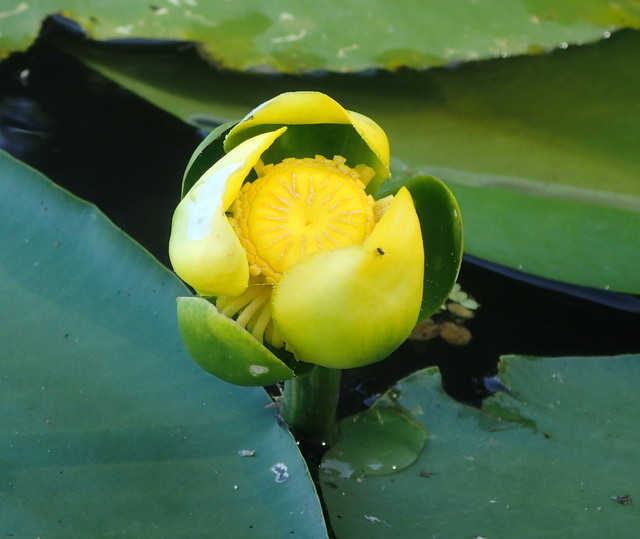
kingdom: Plantae
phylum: Tracheophyta
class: Magnoliopsida
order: Nymphaeales
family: Nymphaeaceae
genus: Nuphar
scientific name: Nuphar advena
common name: Spatter-dock
